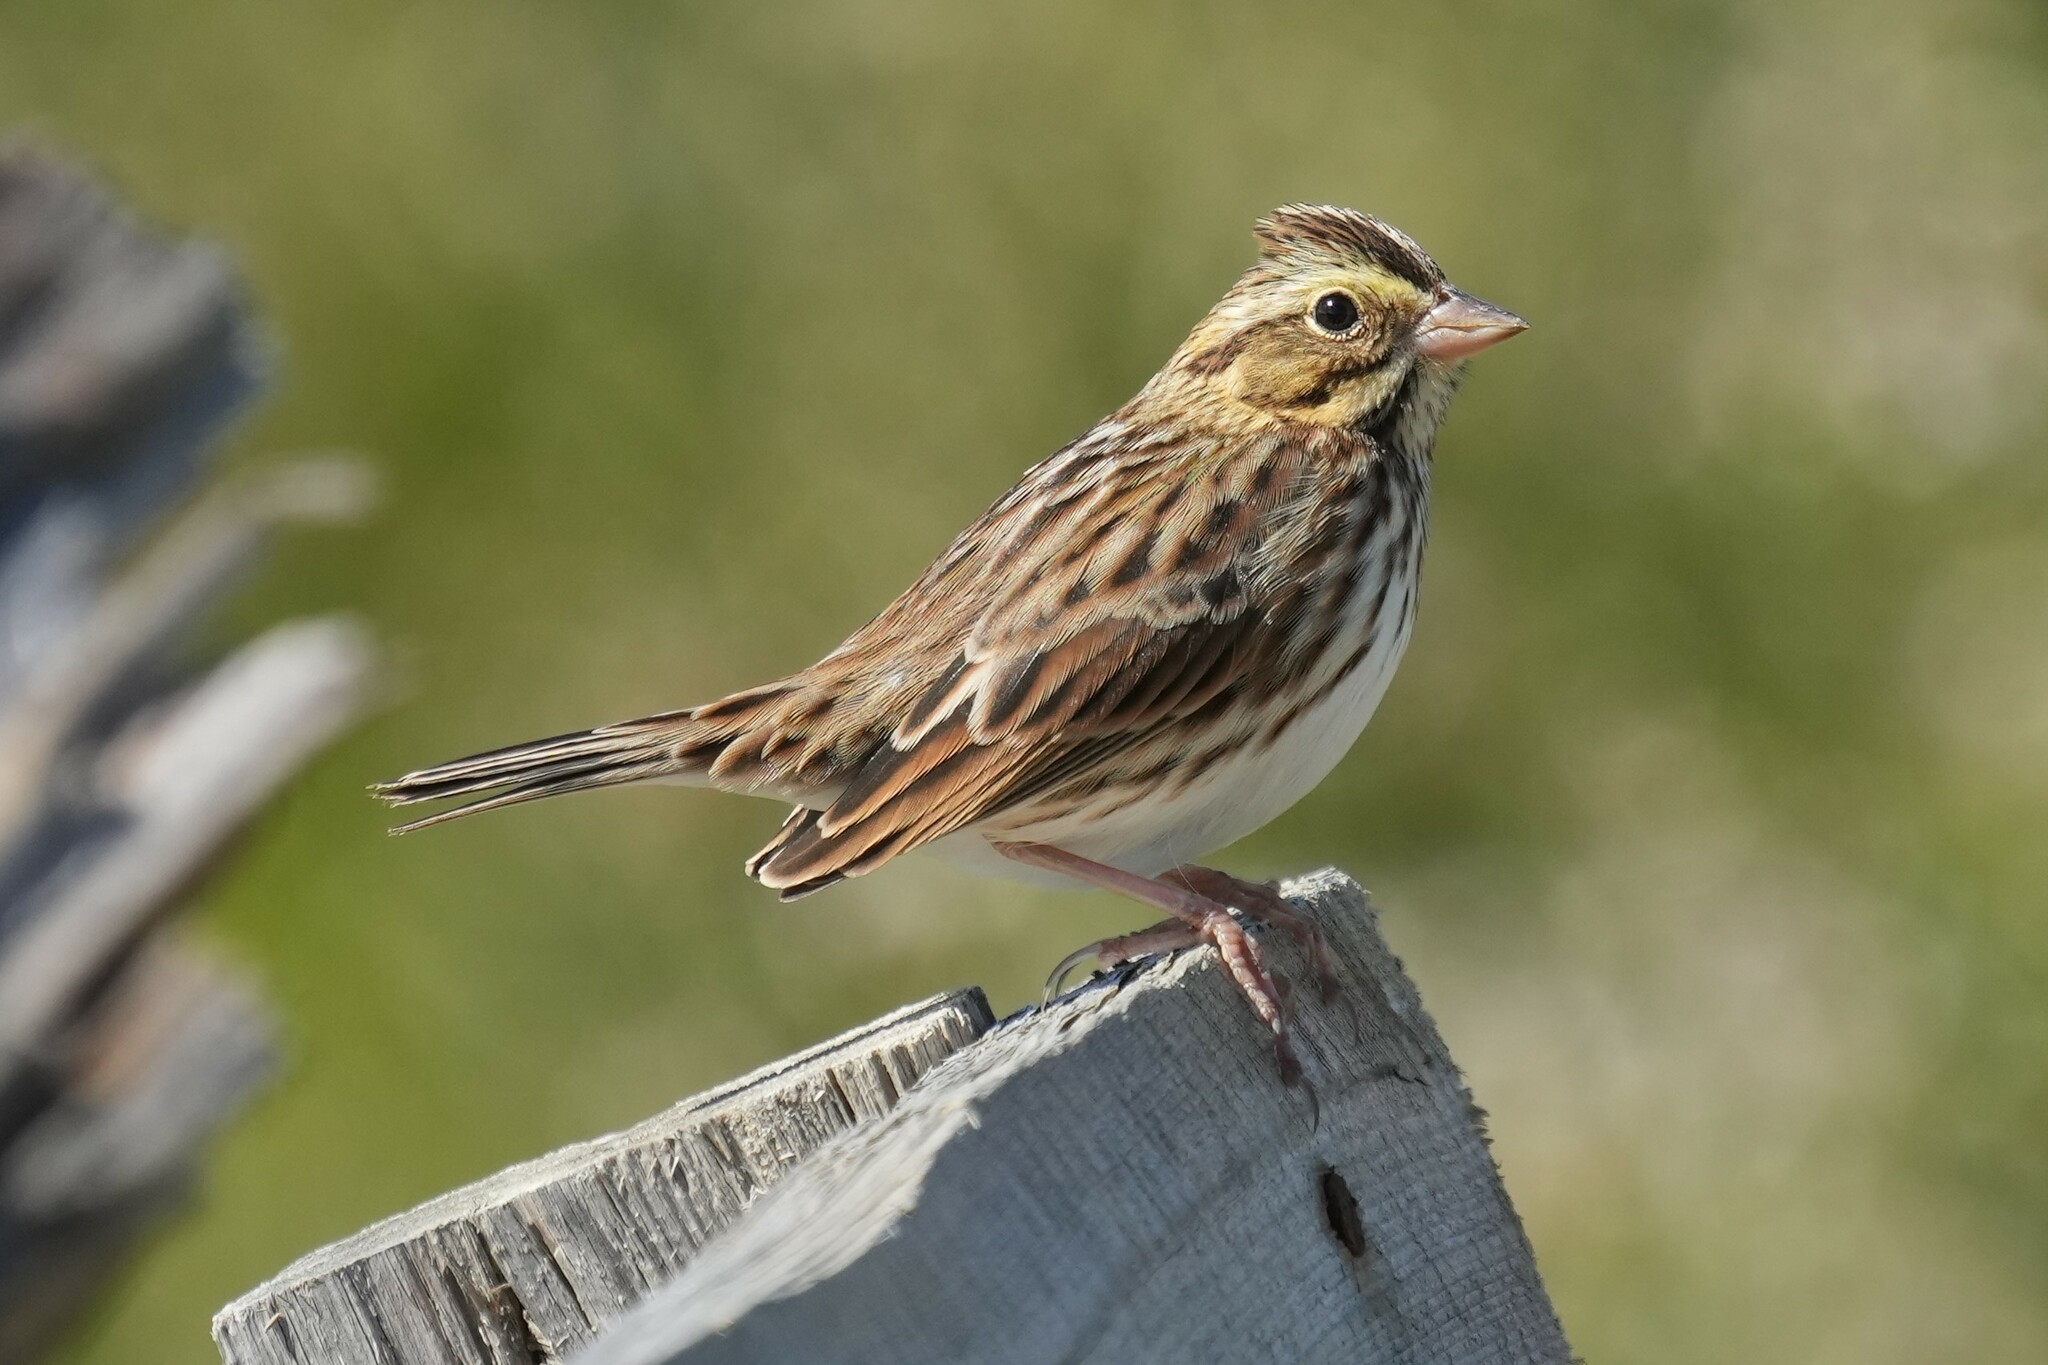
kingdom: Animalia
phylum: Chordata
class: Aves
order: Passeriformes
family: Passerellidae
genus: Passerculus
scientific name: Passerculus sandwichensis
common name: Savannah sparrow
